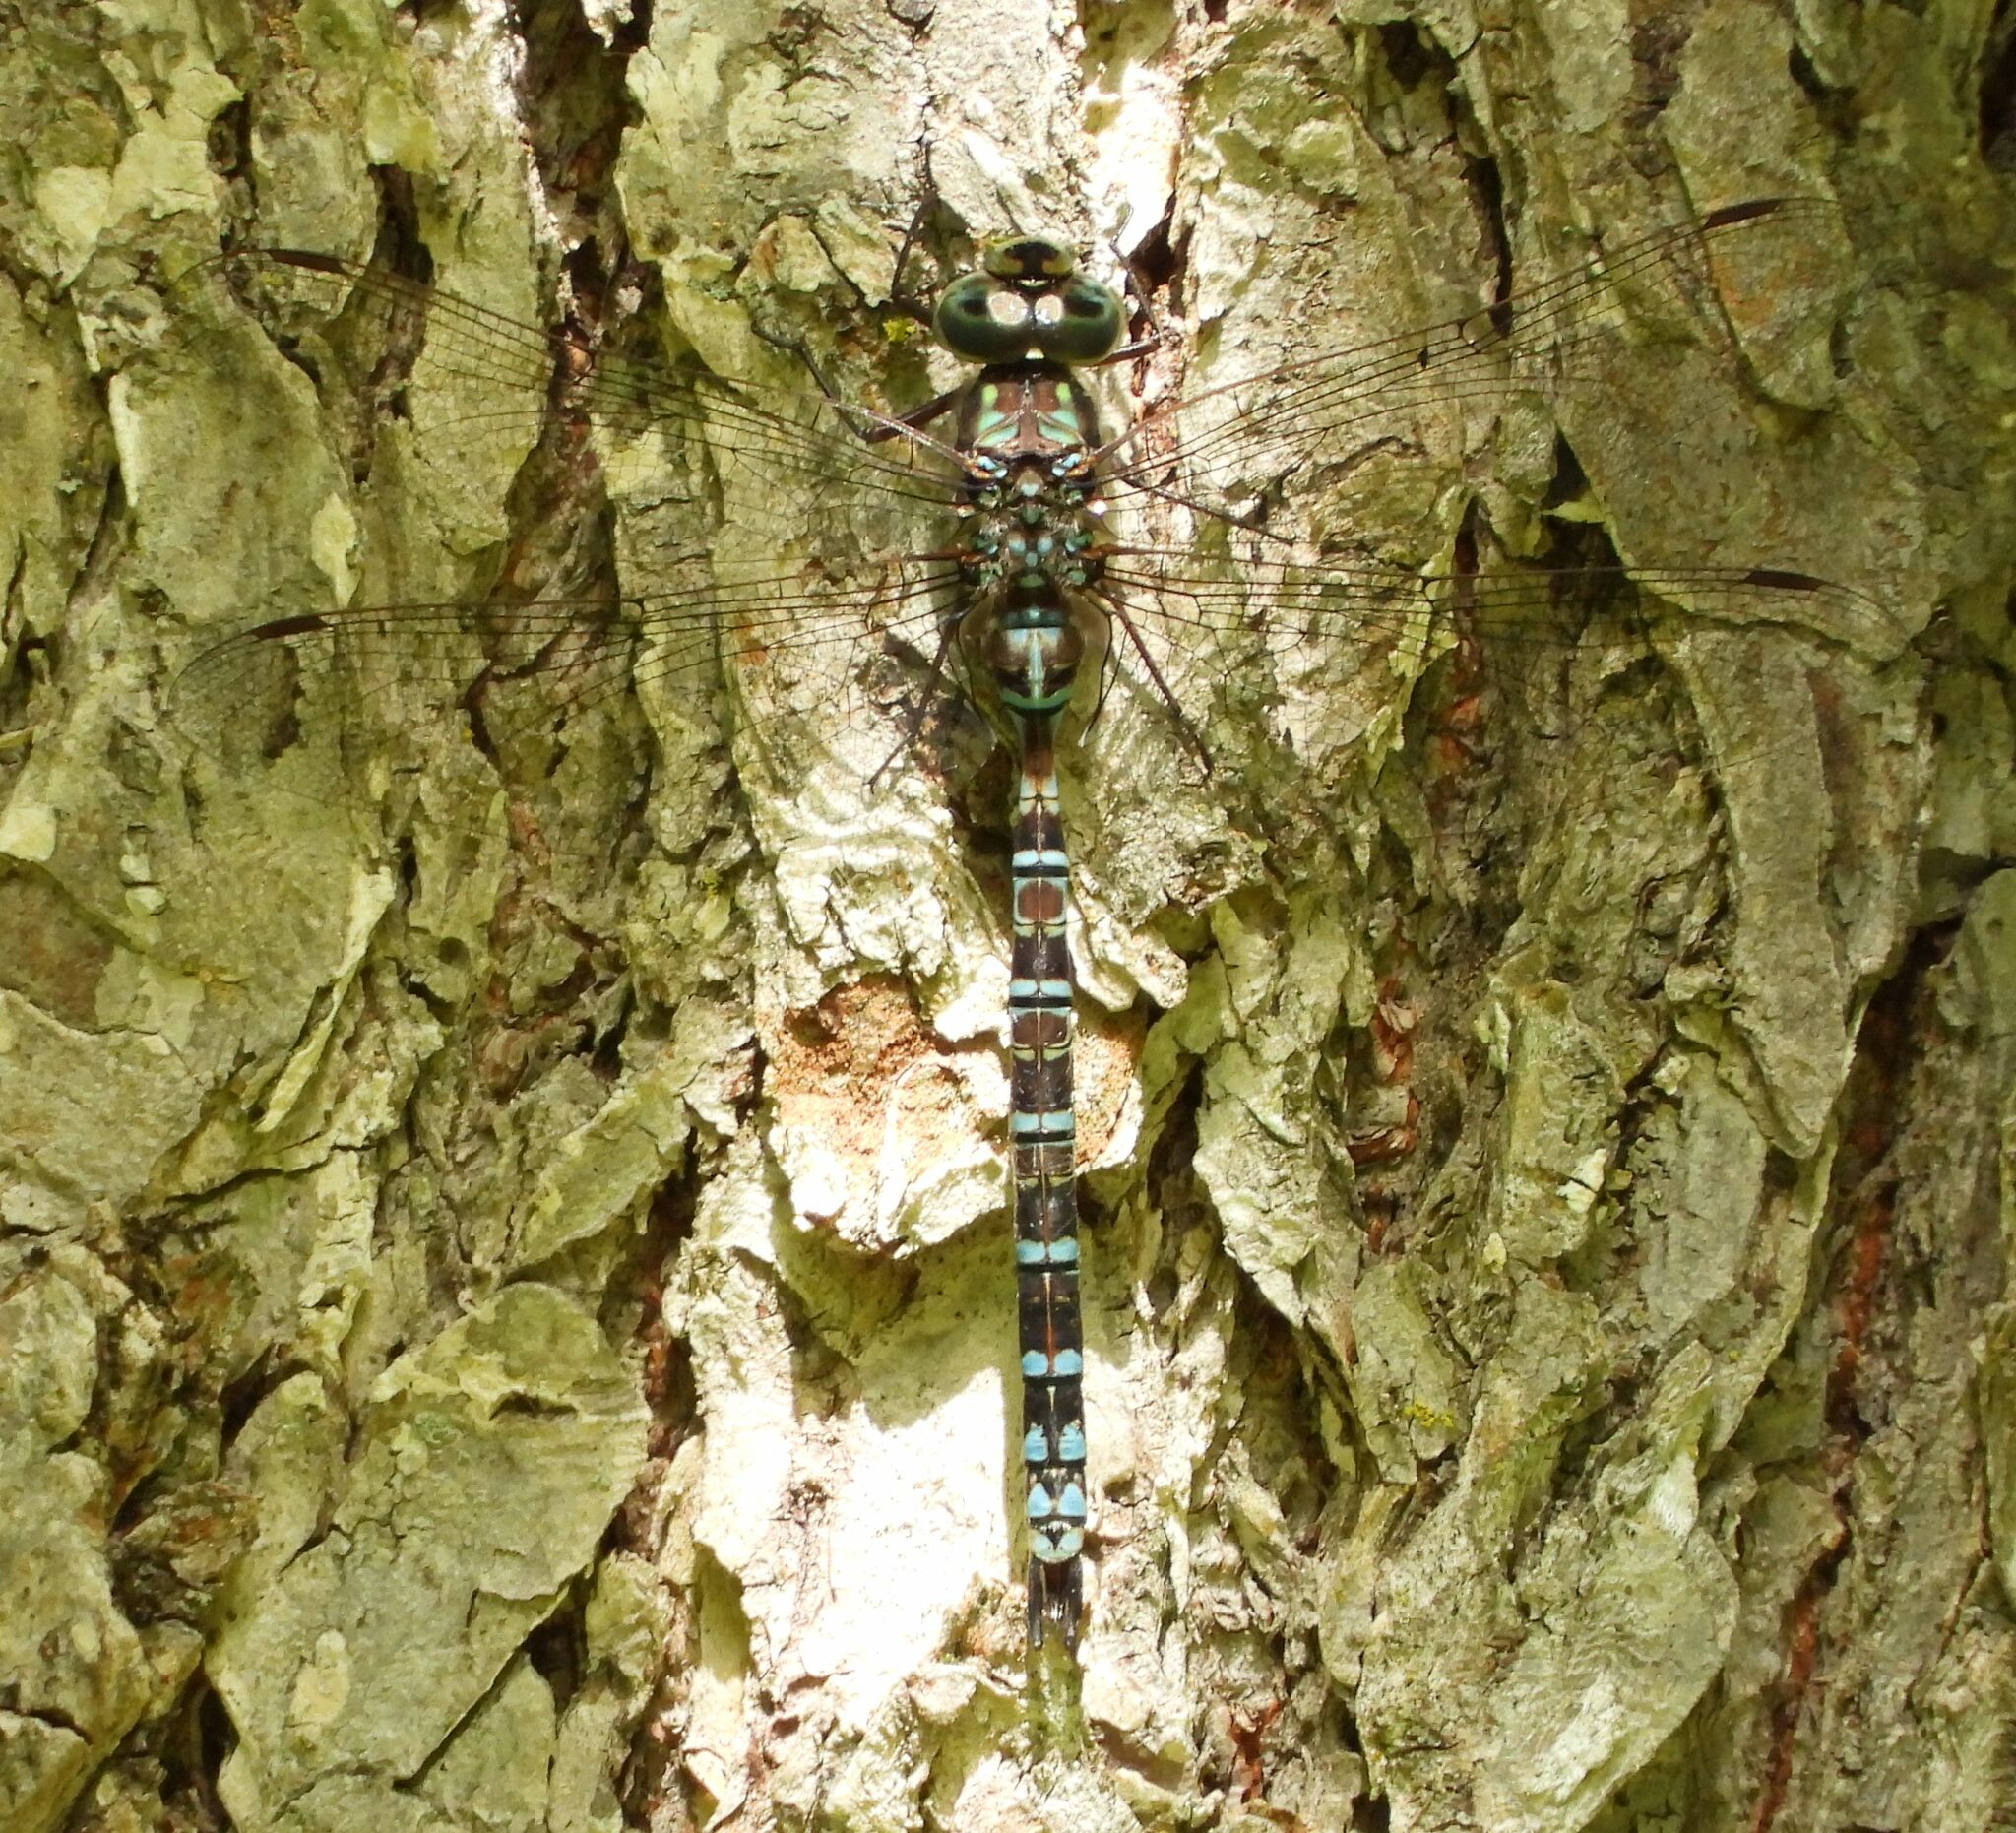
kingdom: Animalia
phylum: Arthropoda
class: Insecta
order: Odonata
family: Aeshnidae
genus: Aeshna
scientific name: Aeshna clepsydra
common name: Mottled darner
